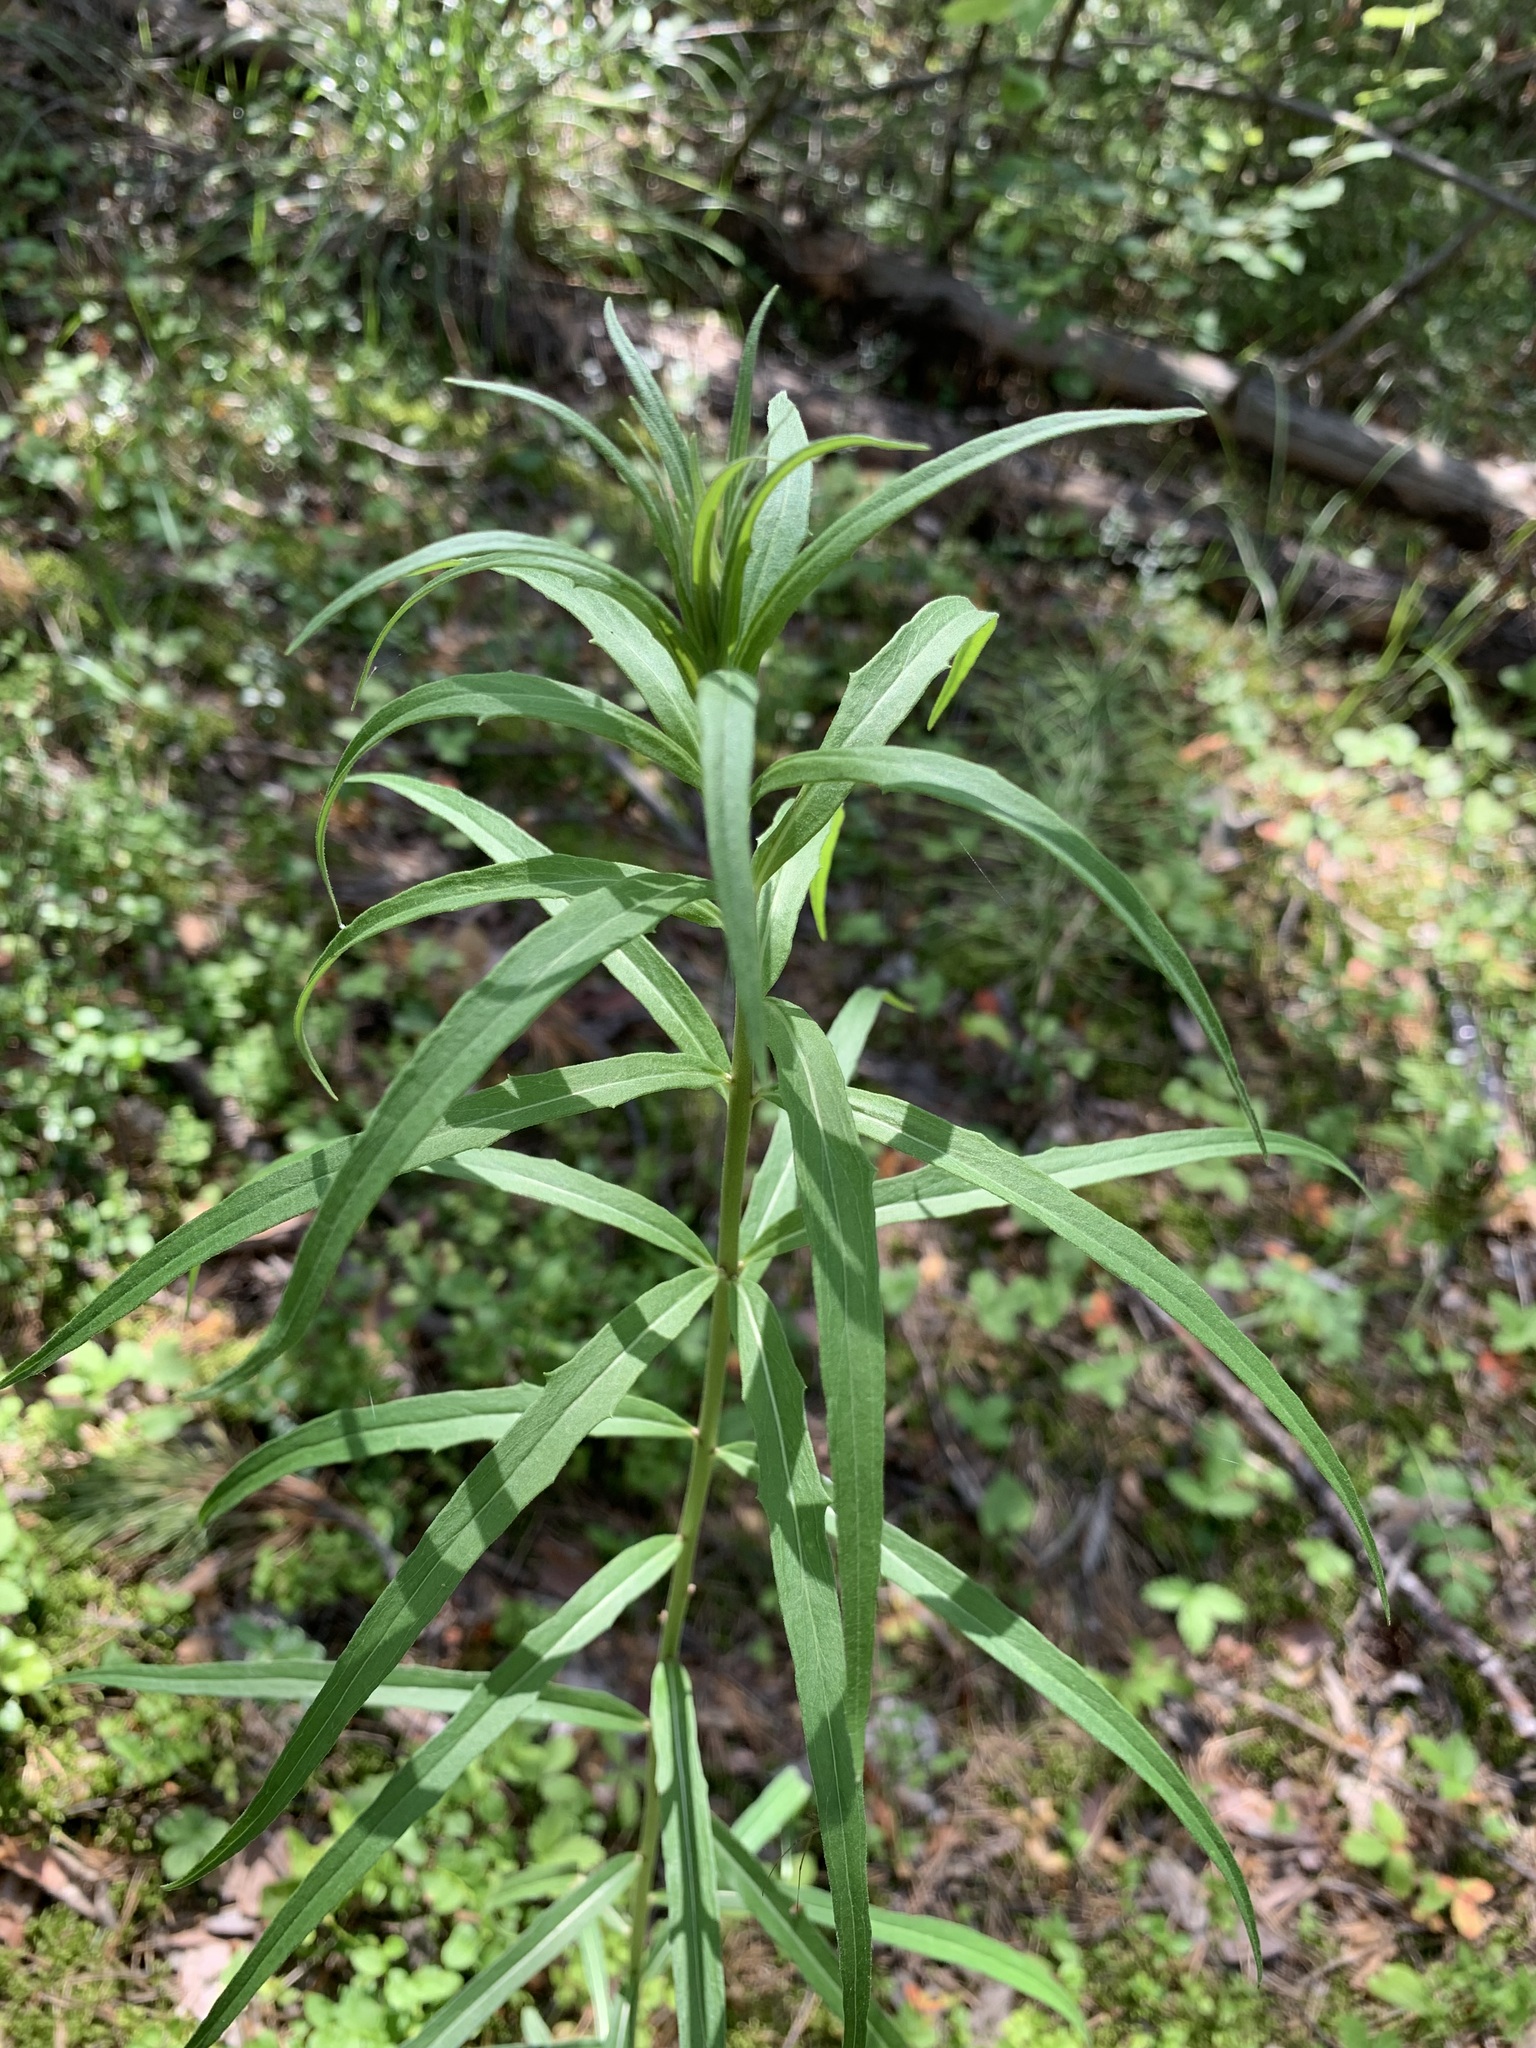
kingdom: Plantae
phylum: Tracheophyta
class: Magnoliopsida
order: Asterales
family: Asteraceae
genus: Hieracium
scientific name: Hieracium umbellatum
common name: Northern hawkweed
